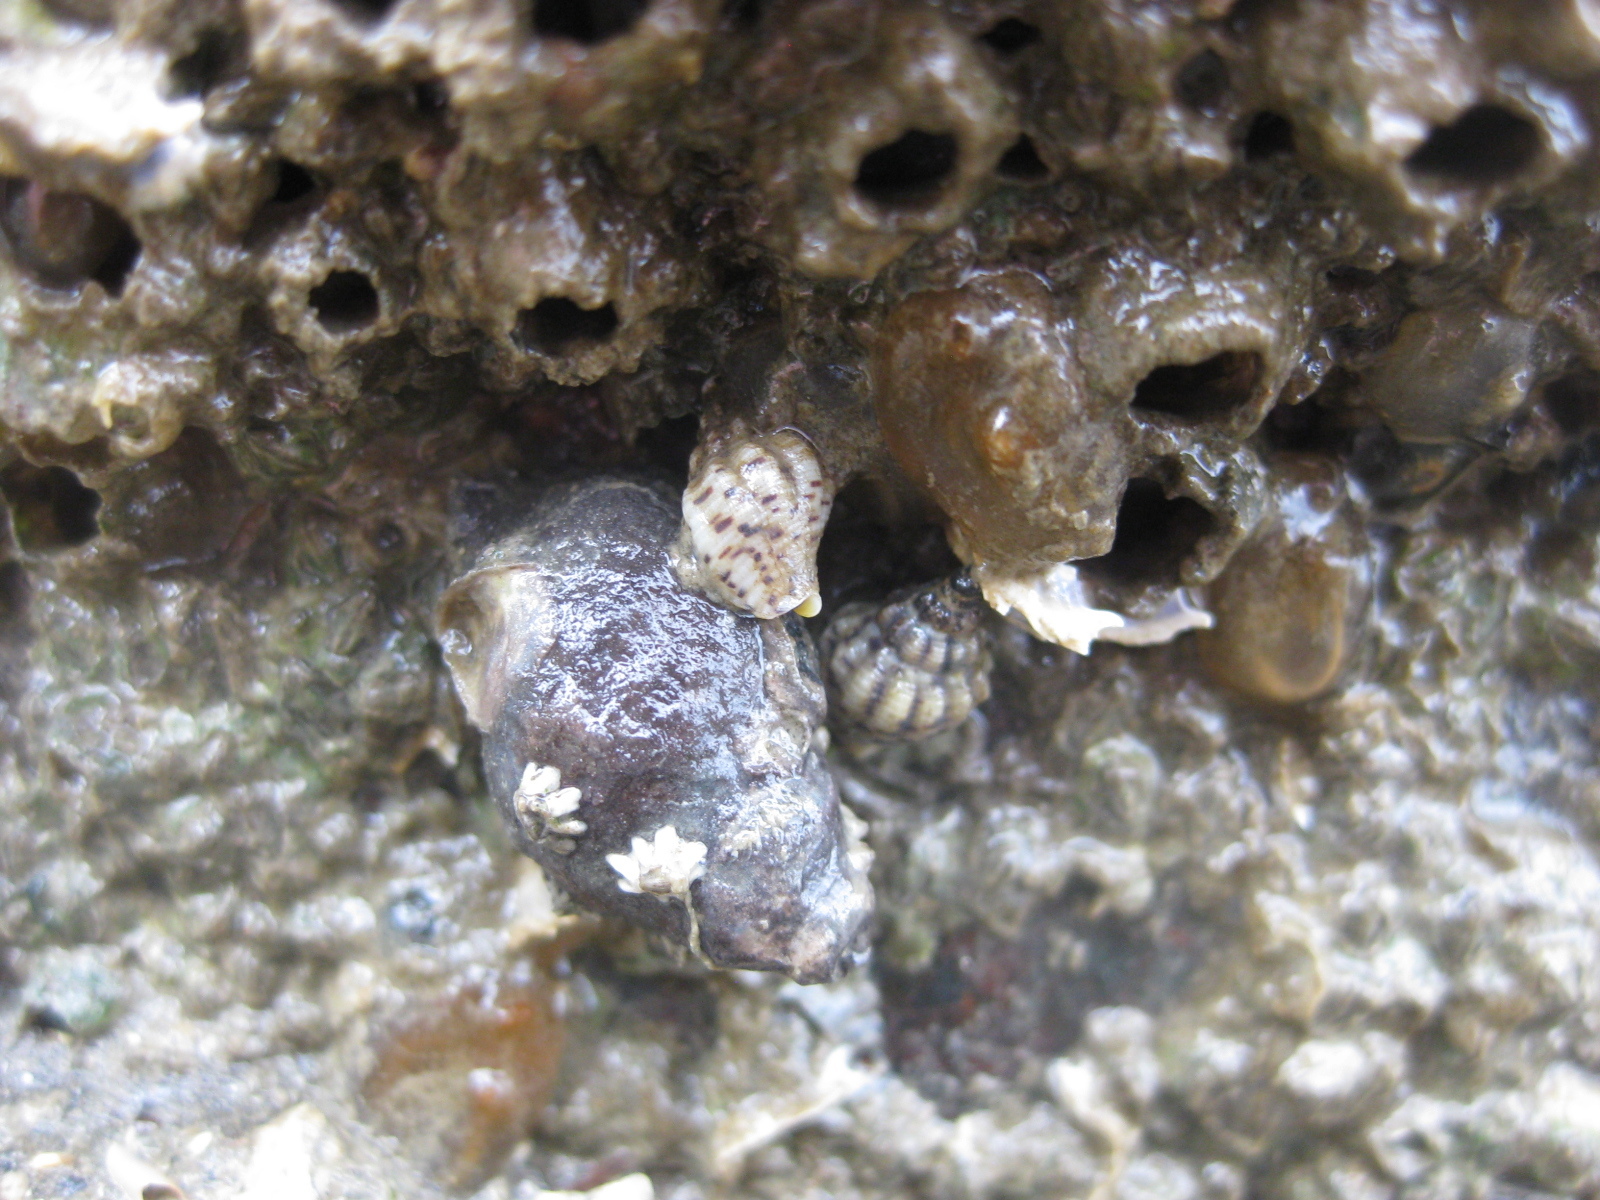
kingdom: Animalia
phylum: Mollusca
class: Gastropoda
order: Neogastropoda
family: Cominellidae
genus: Cominella
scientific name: Cominella adspersa
